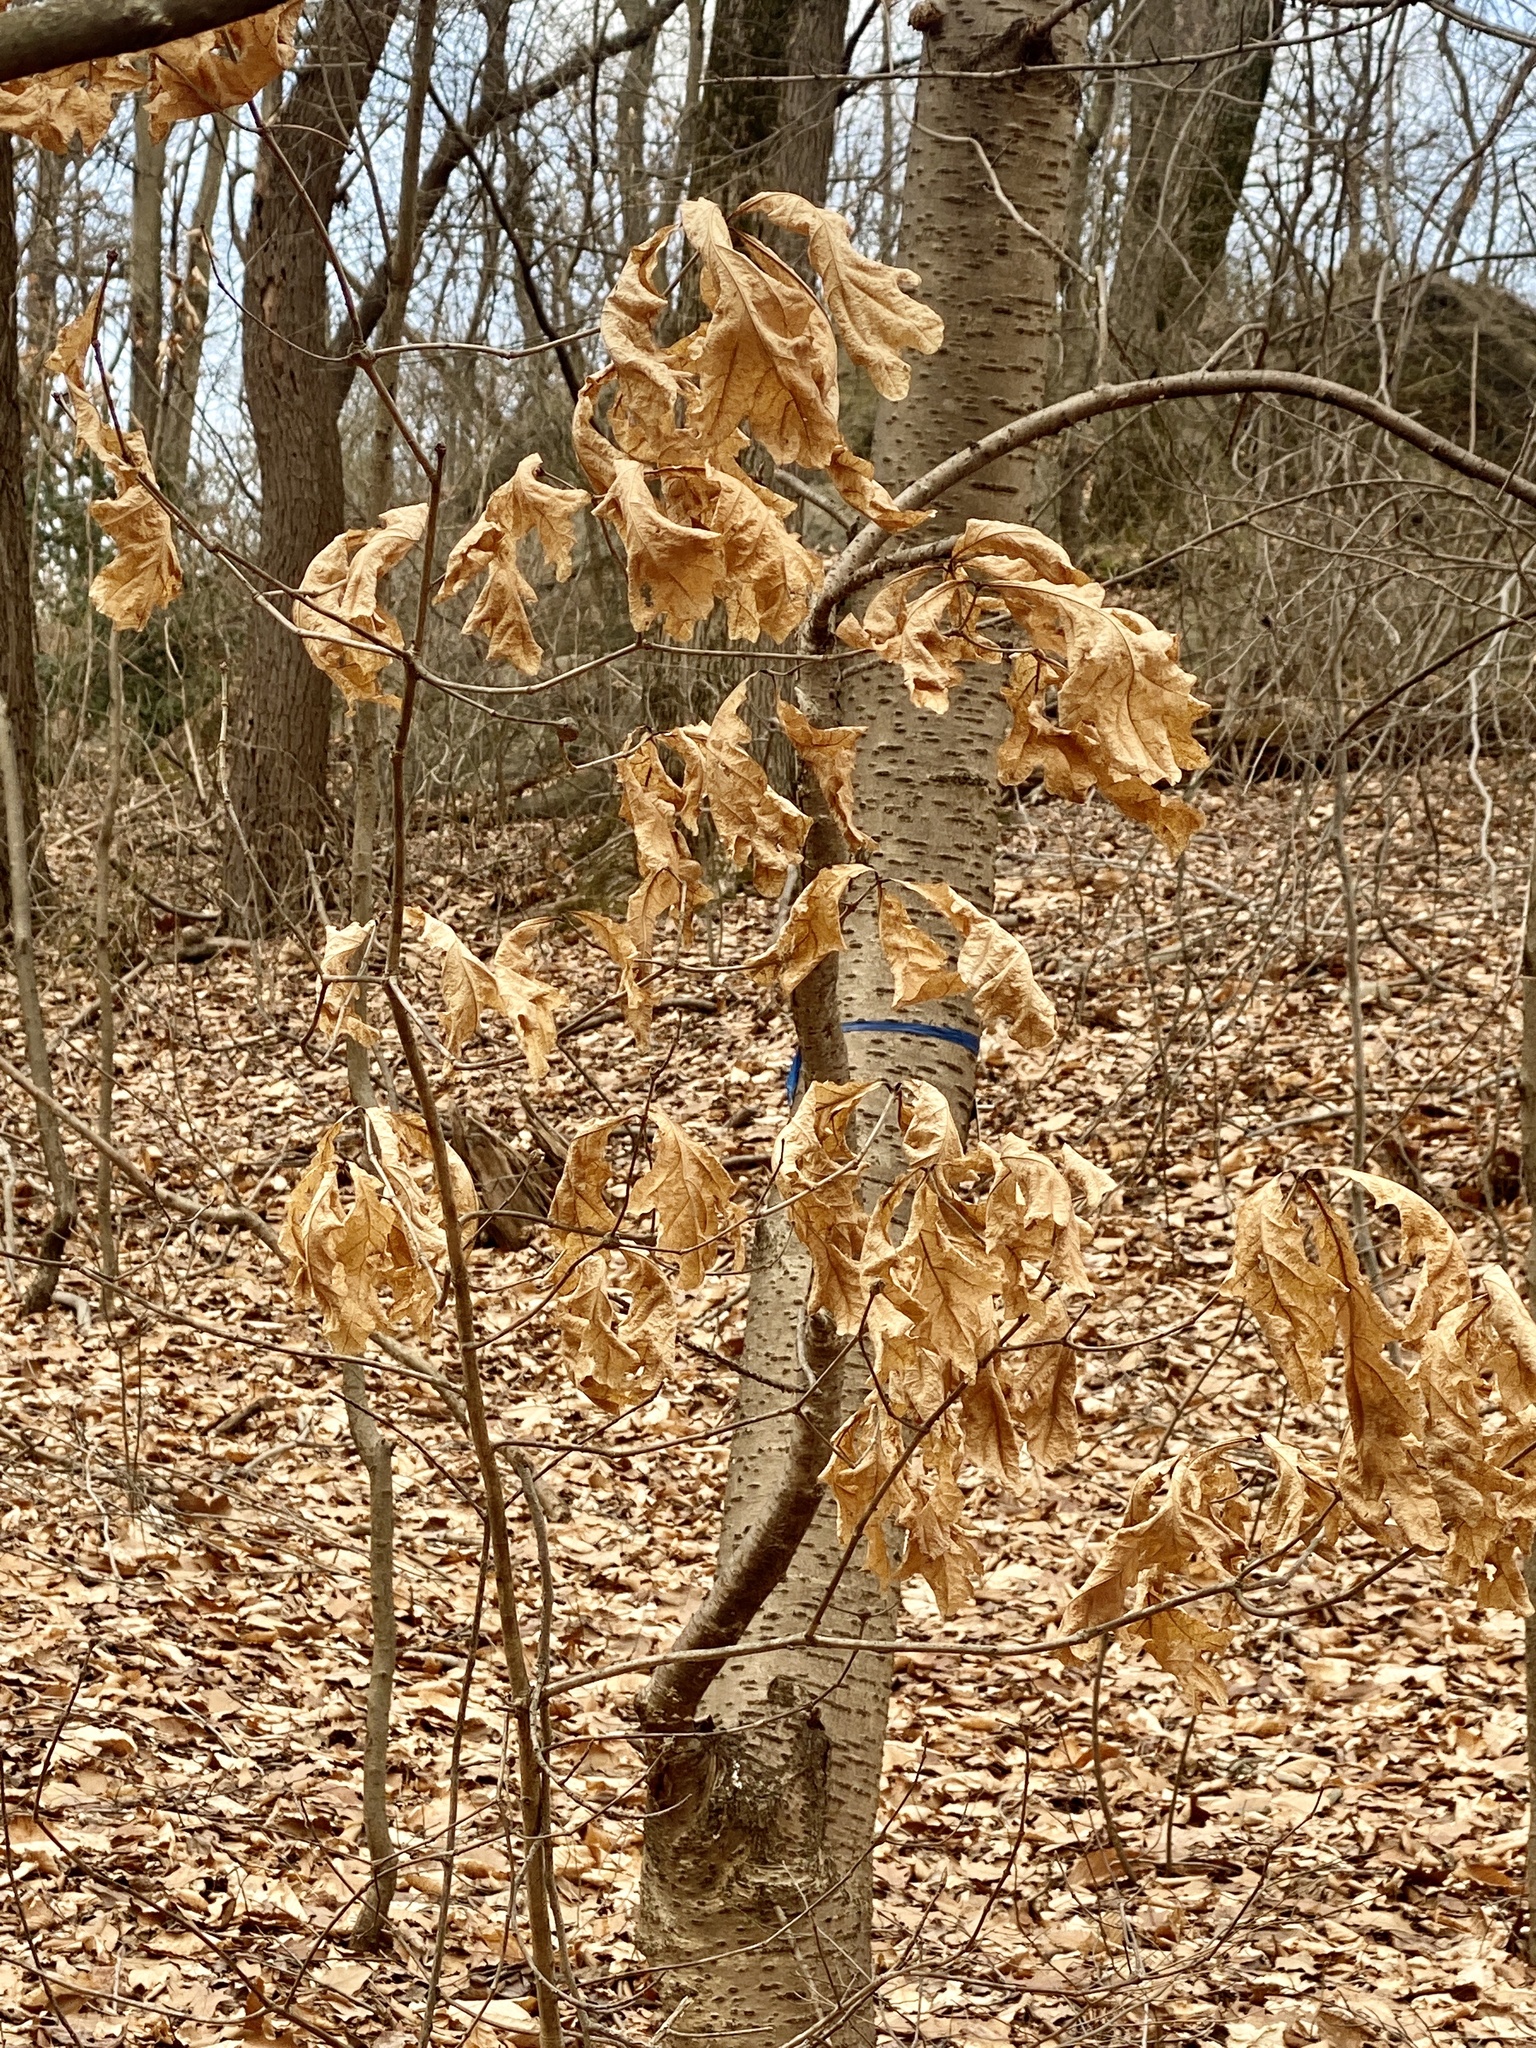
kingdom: Plantae
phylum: Tracheophyta
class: Magnoliopsida
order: Fagales
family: Fagaceae
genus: Quercus
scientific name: Quercus alba
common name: White oak
